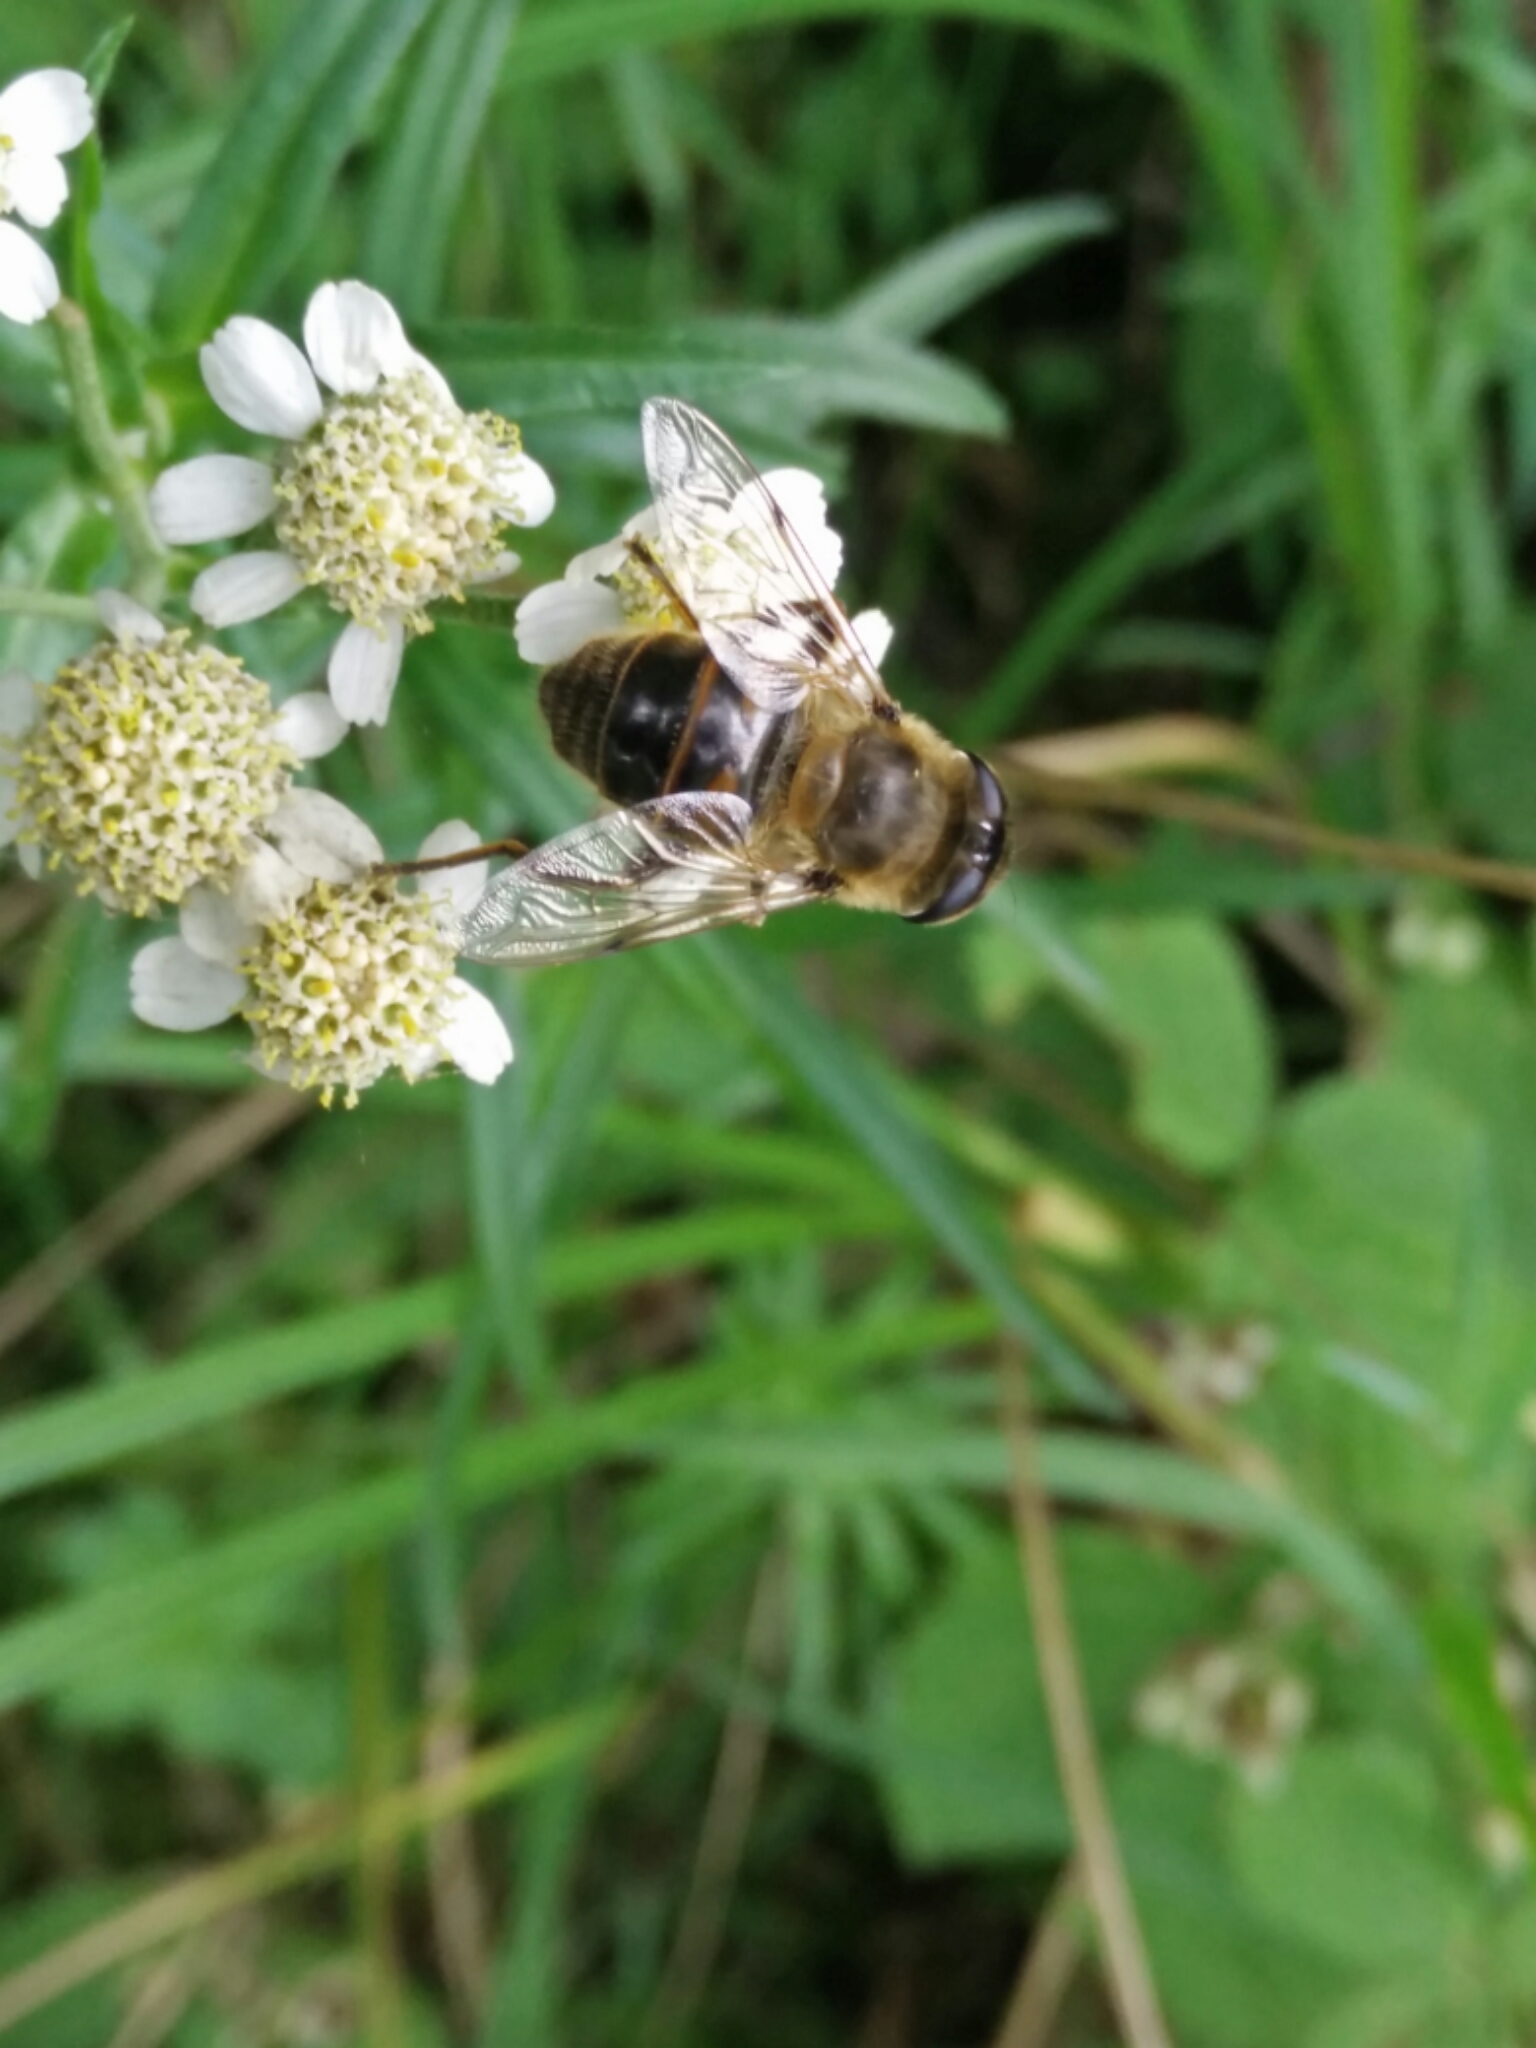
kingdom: Animalia
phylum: Arthropoda
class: Insecta
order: Diptera
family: Syrphidae
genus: Eristalis
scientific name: Eristalis tenax
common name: Drone fly
